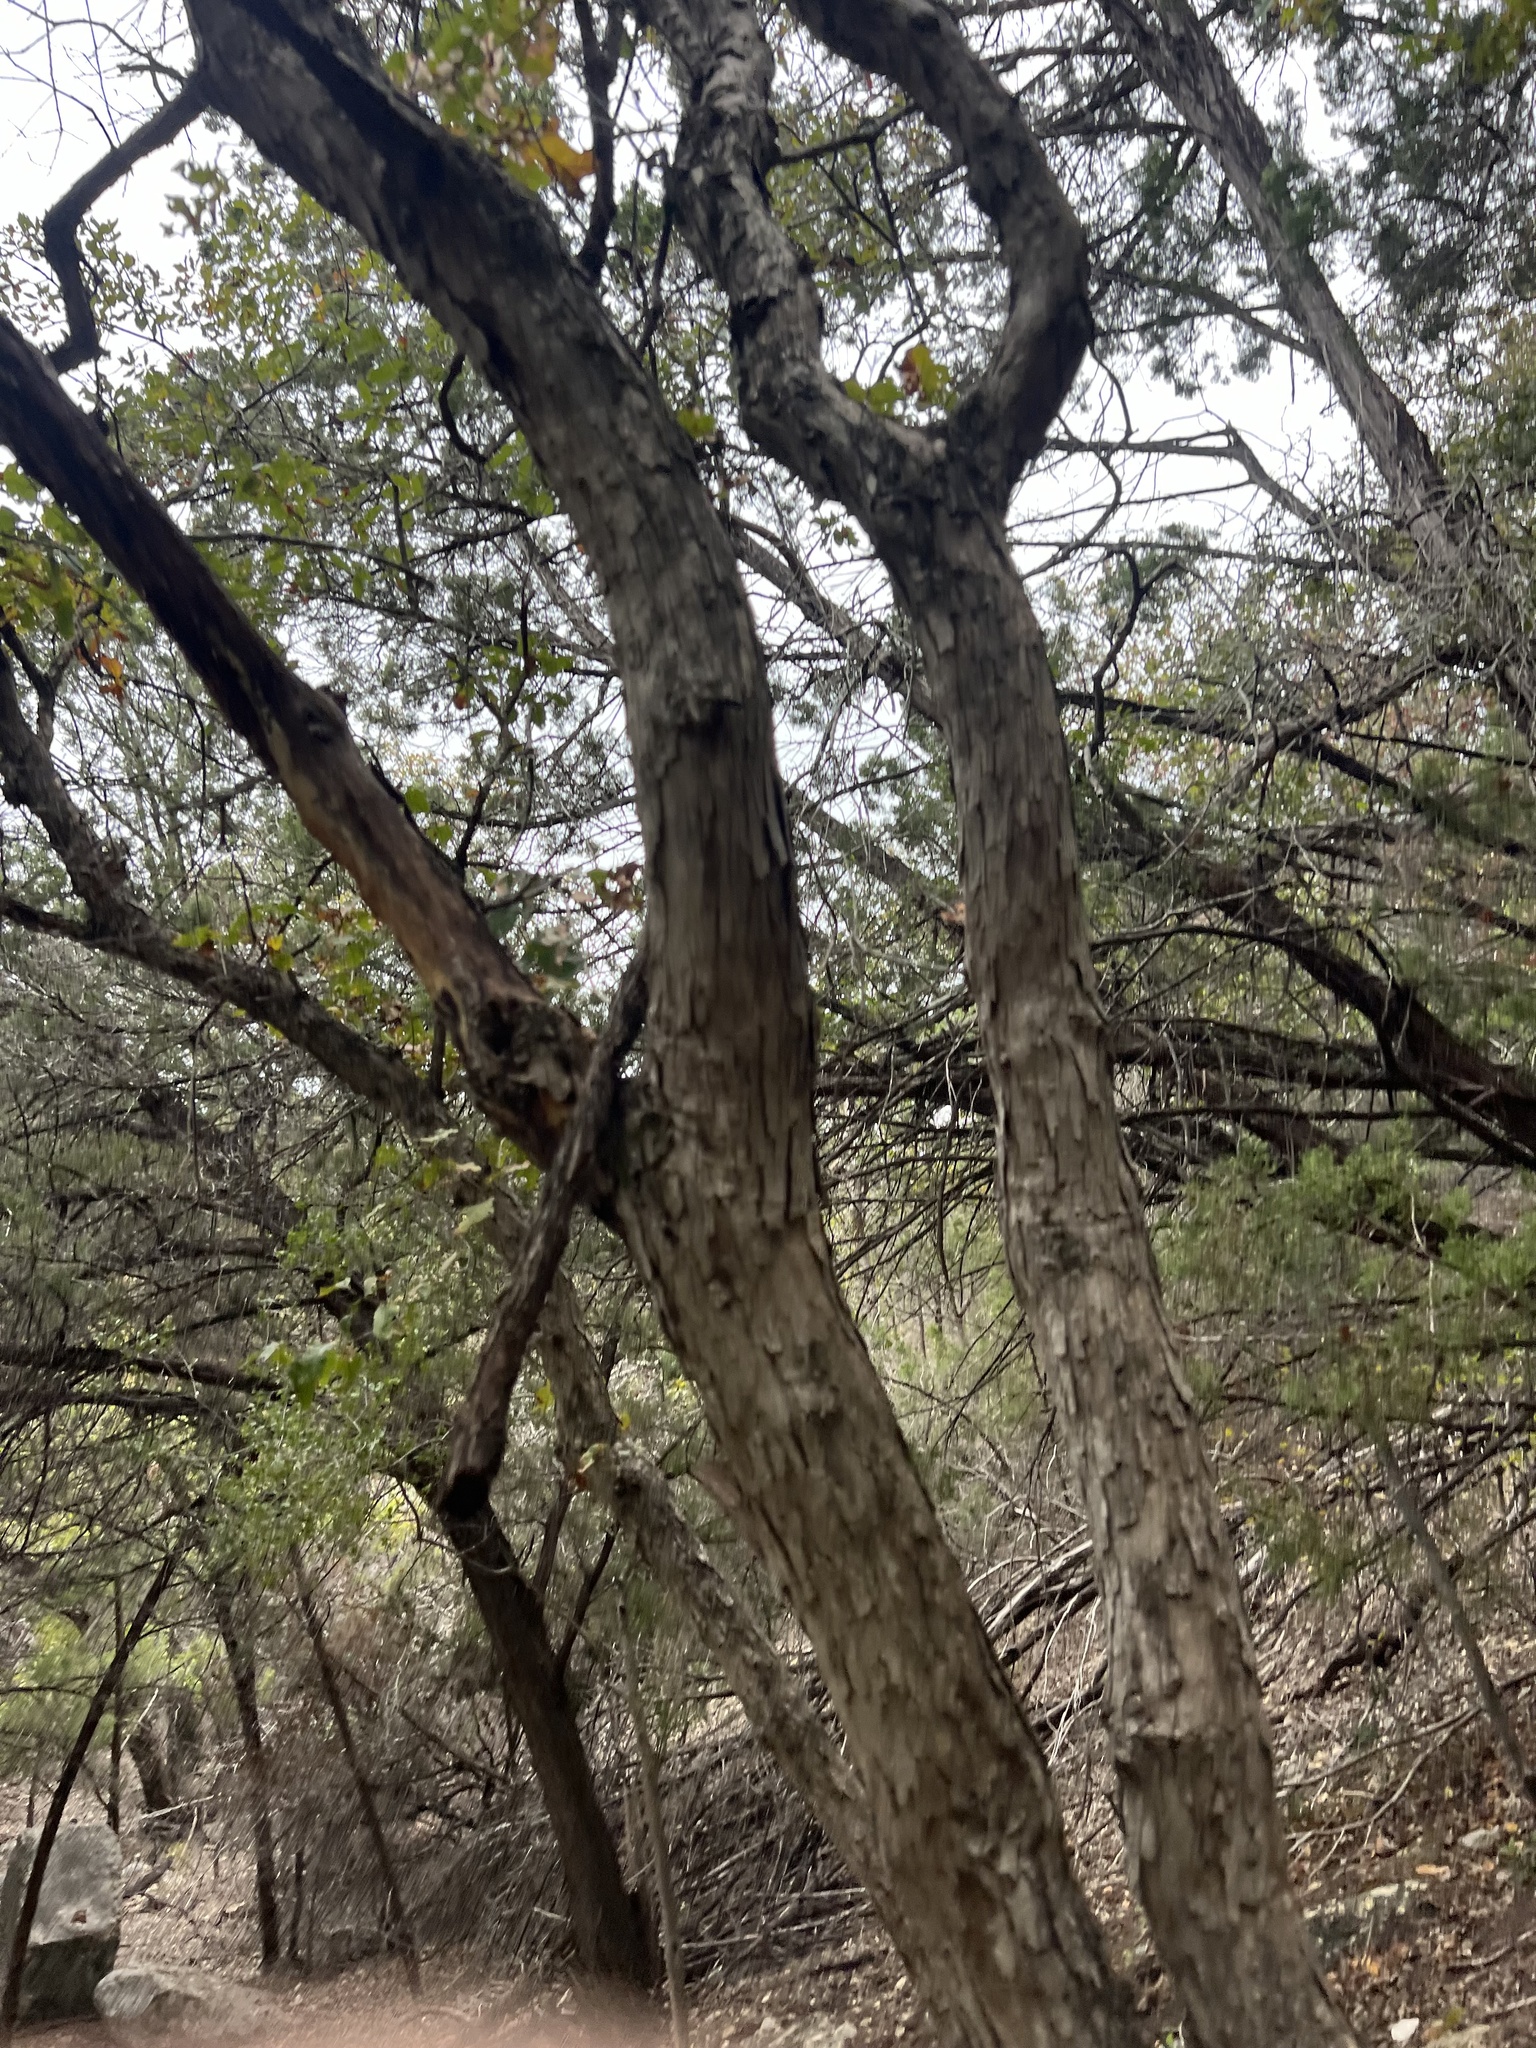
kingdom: Plantae
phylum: Tracheophyta
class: Magnoliopsida
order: Fagales
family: Fagaceae
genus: Quercus
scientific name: Quercus sinuata
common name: Durand oak
